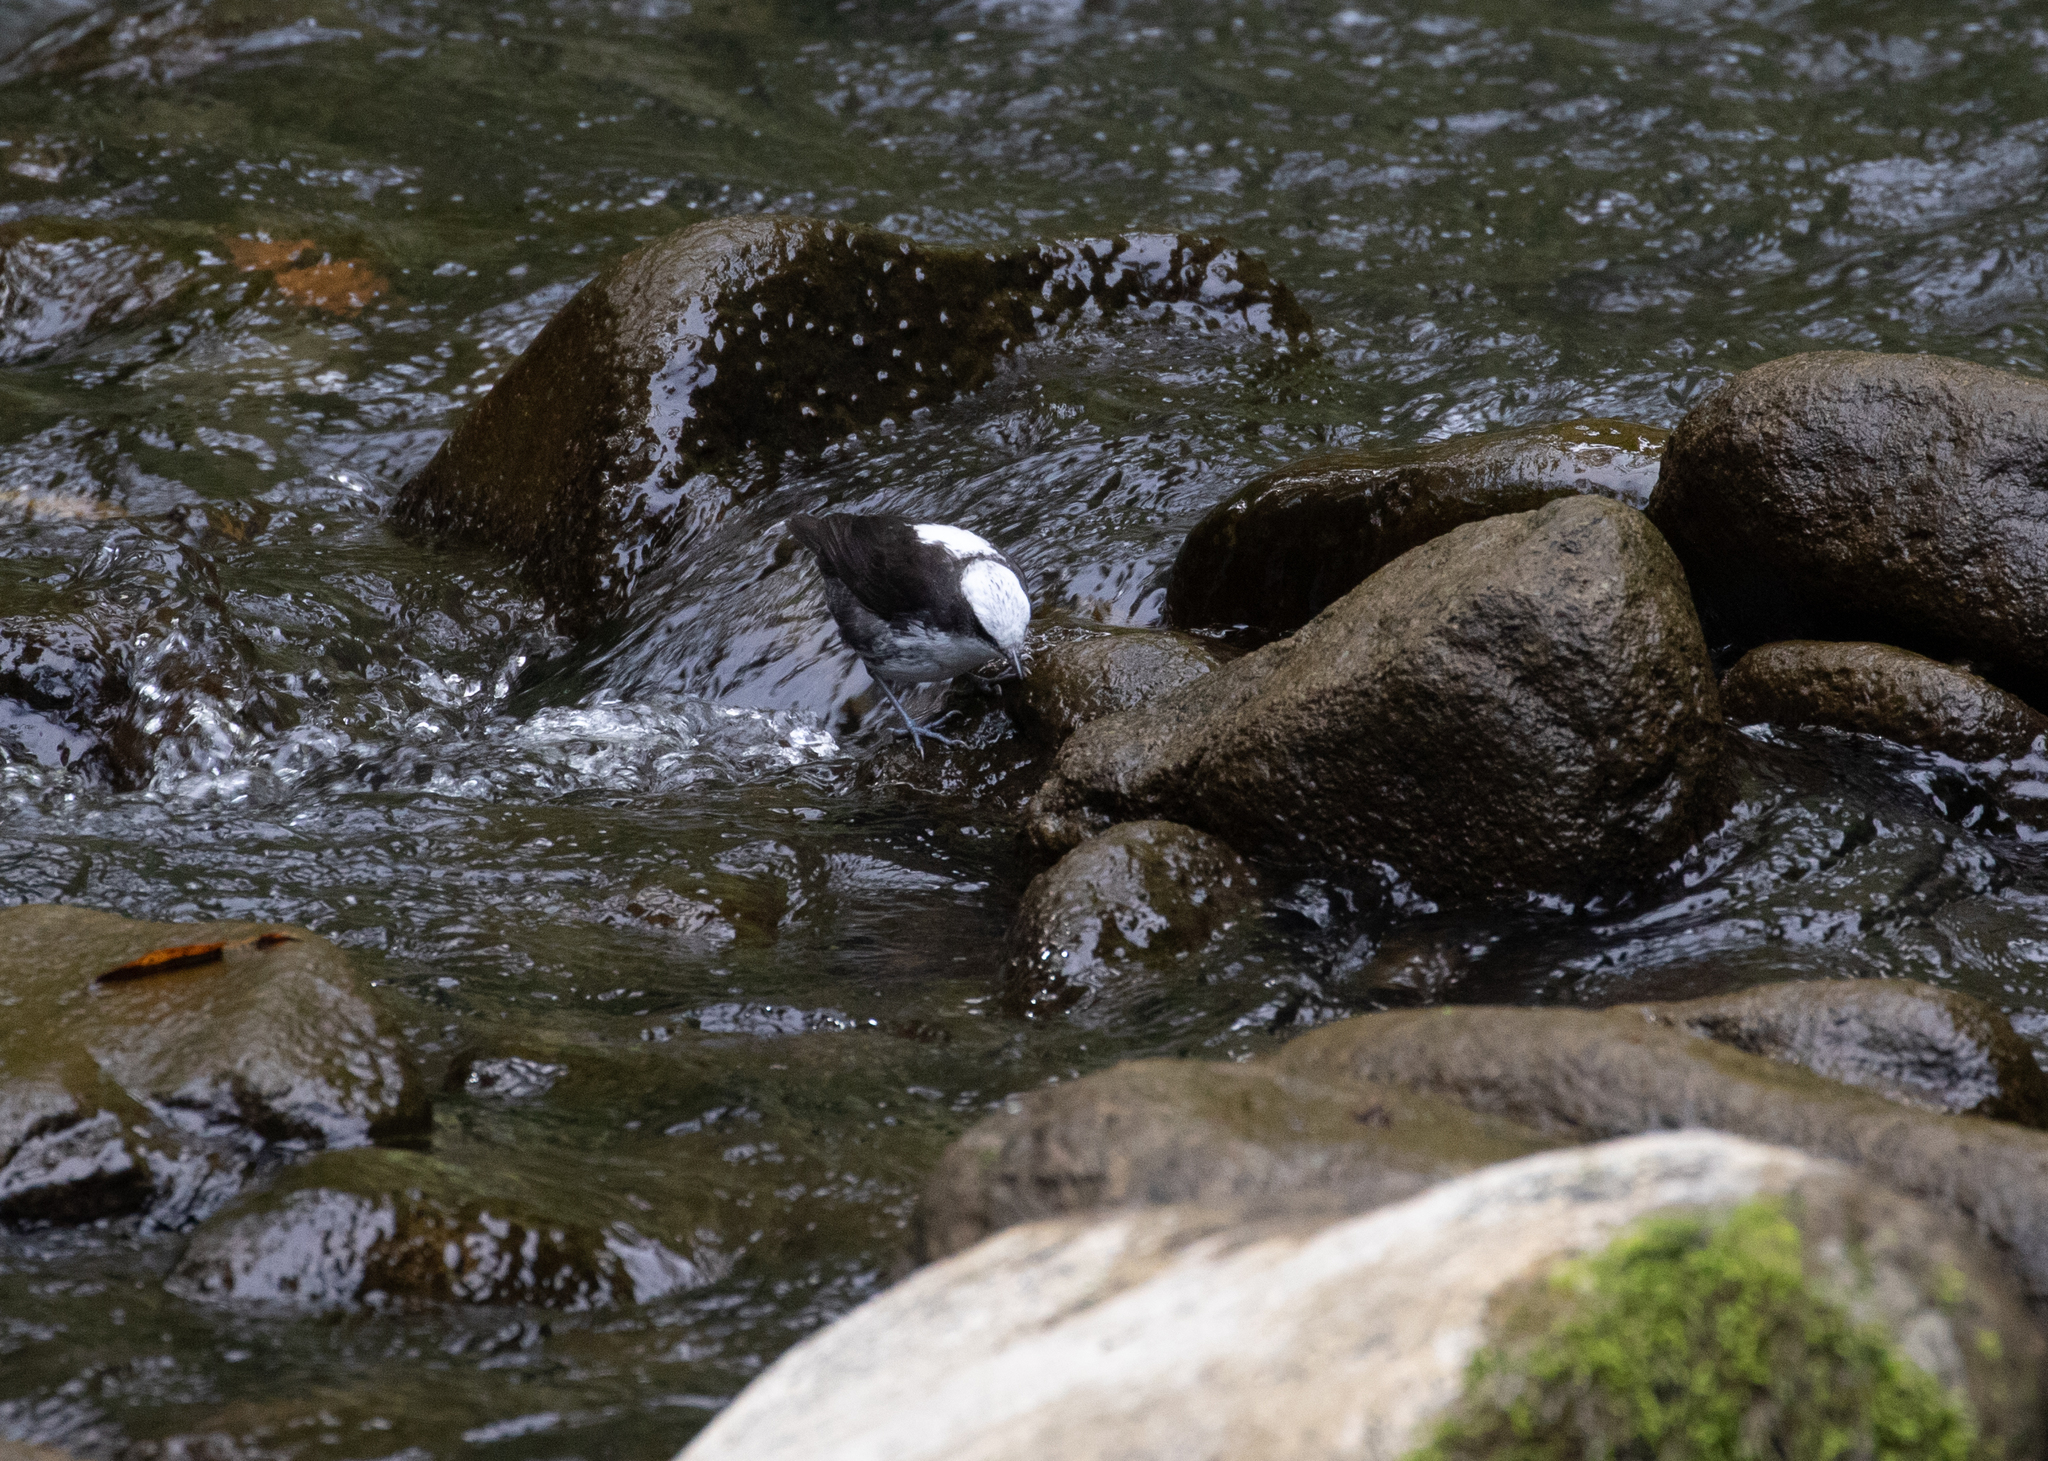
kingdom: Animalia
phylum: Chordata
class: Aves
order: Passeriformes
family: Cinclidae
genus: Cinclus
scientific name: Cinclus leucocephalus
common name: White-capped dipper
